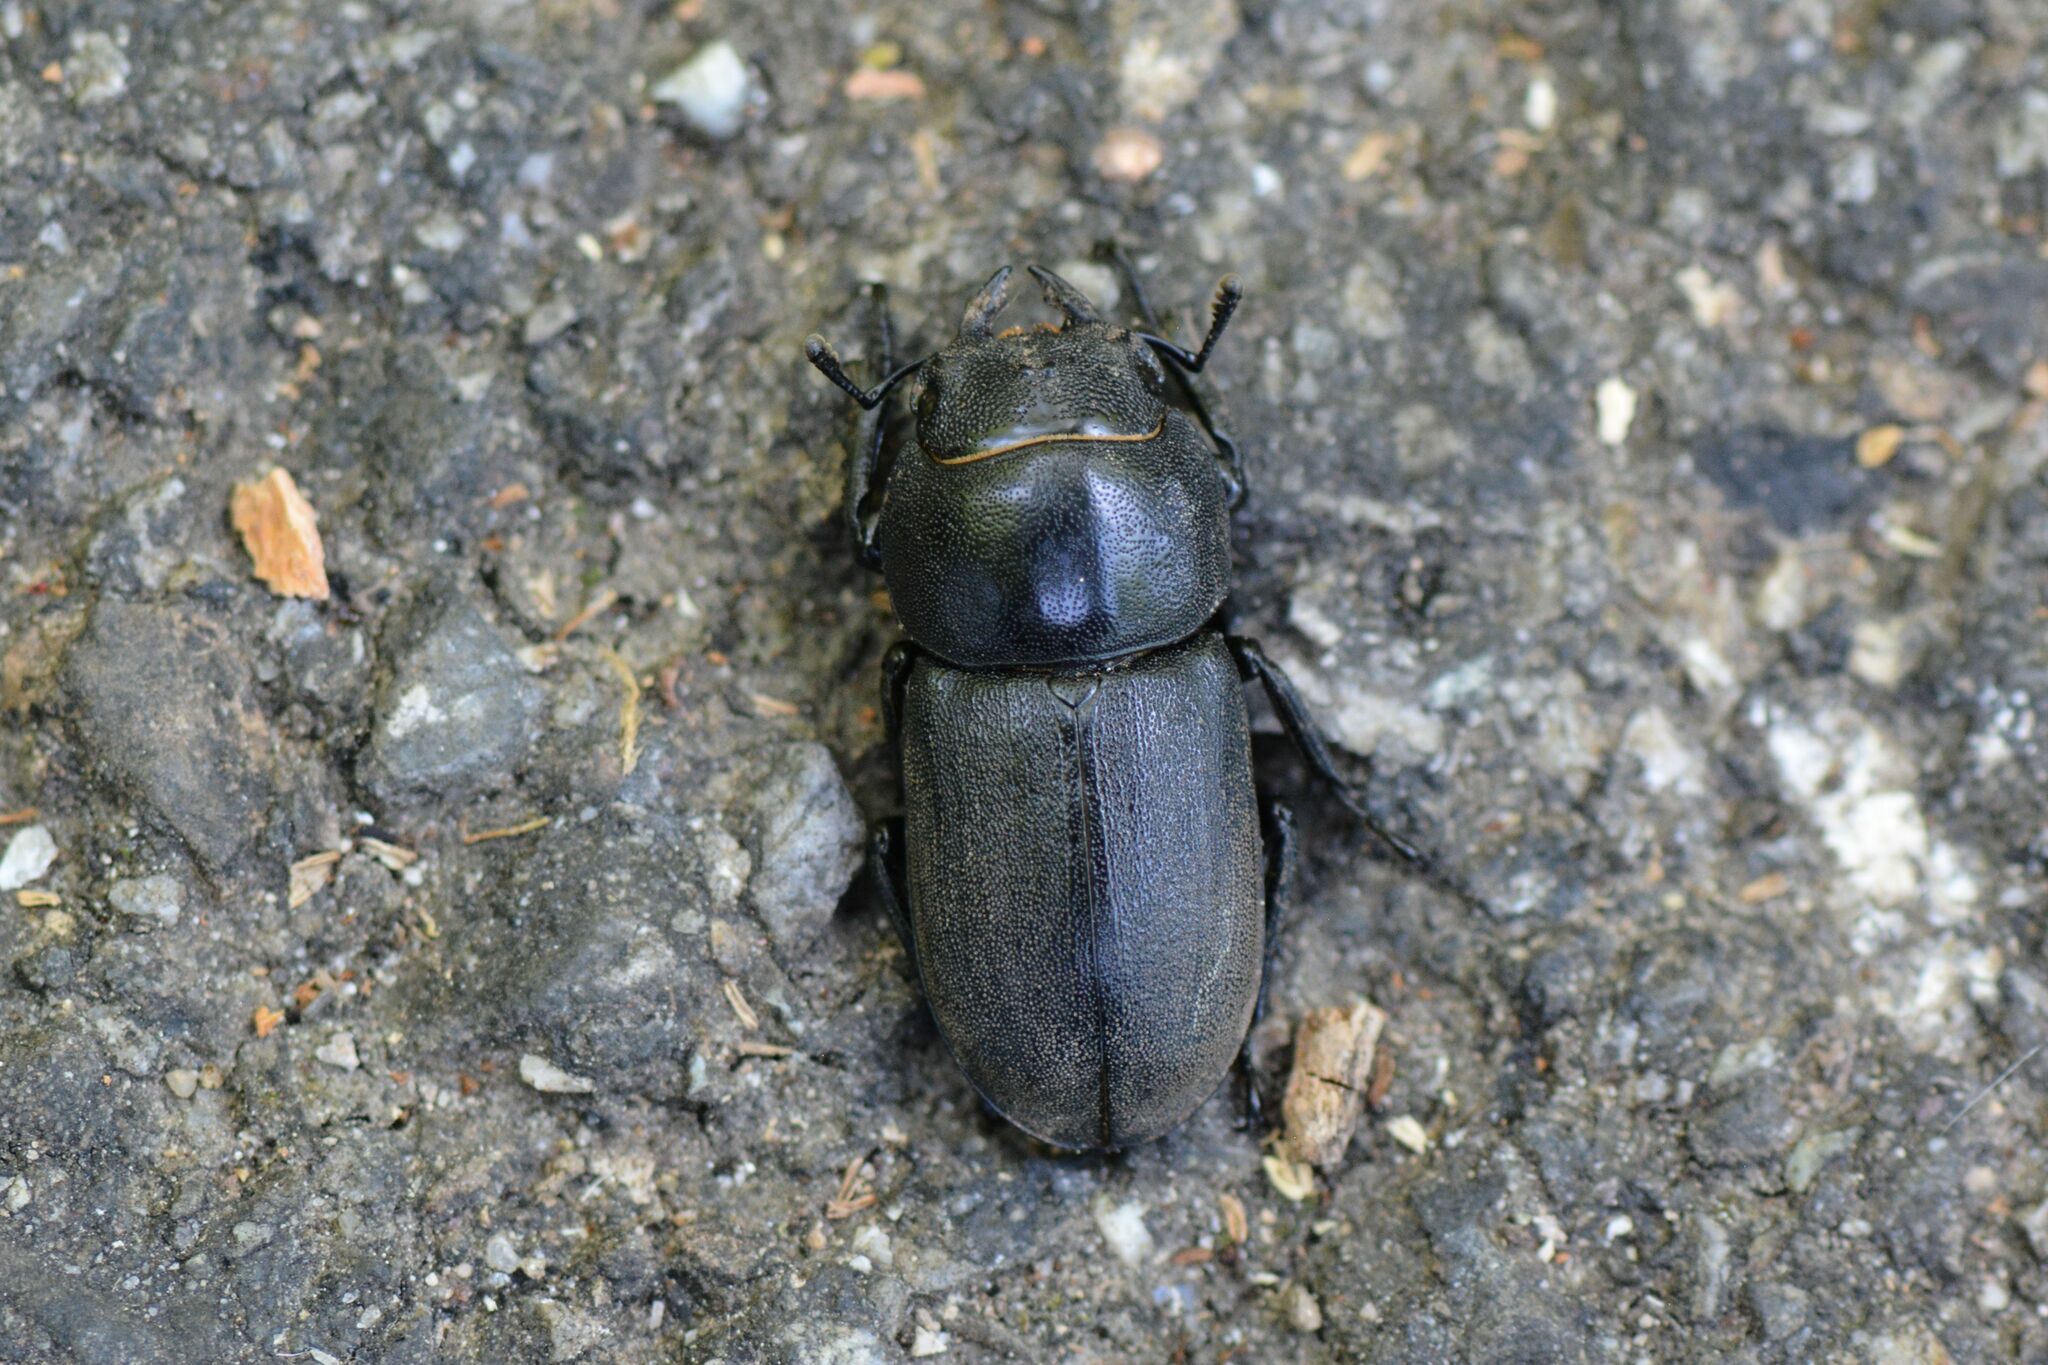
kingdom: Animalia
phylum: Arthropoda
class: Insecta
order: Coleoptera
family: Lucanidae
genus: Dorcus
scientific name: Dorcus parallelipipedus
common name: Lesser stag beetle
